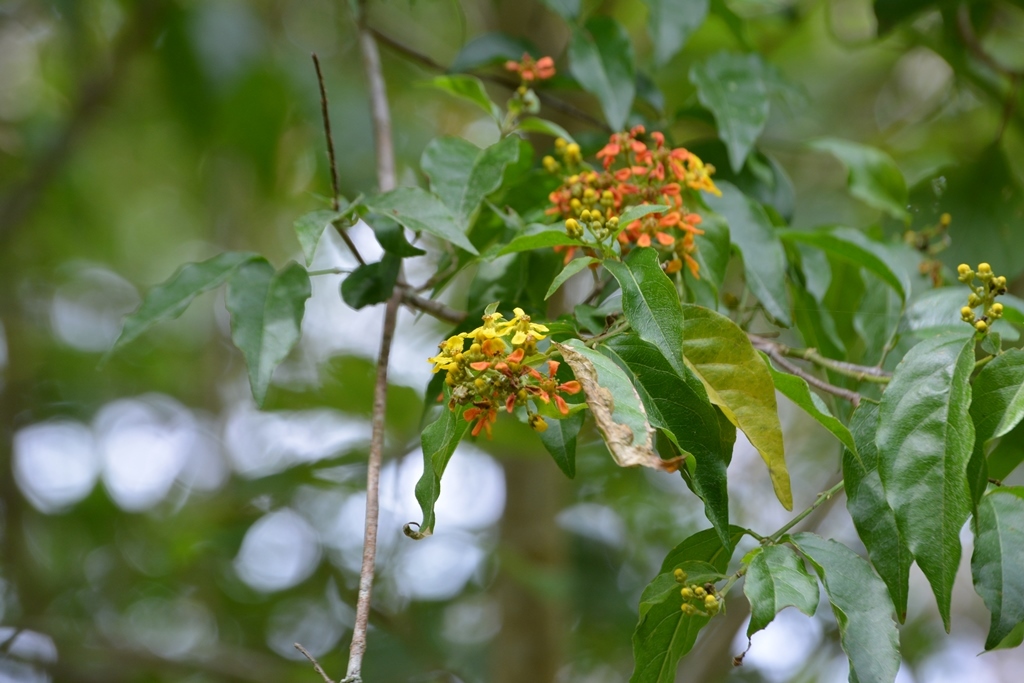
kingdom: Plantae
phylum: Tracheophyta
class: Magnoliopsida
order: Malpighiales
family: Malpighiaceae
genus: Tetrapterys
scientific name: Tetrapterys schiedeana
